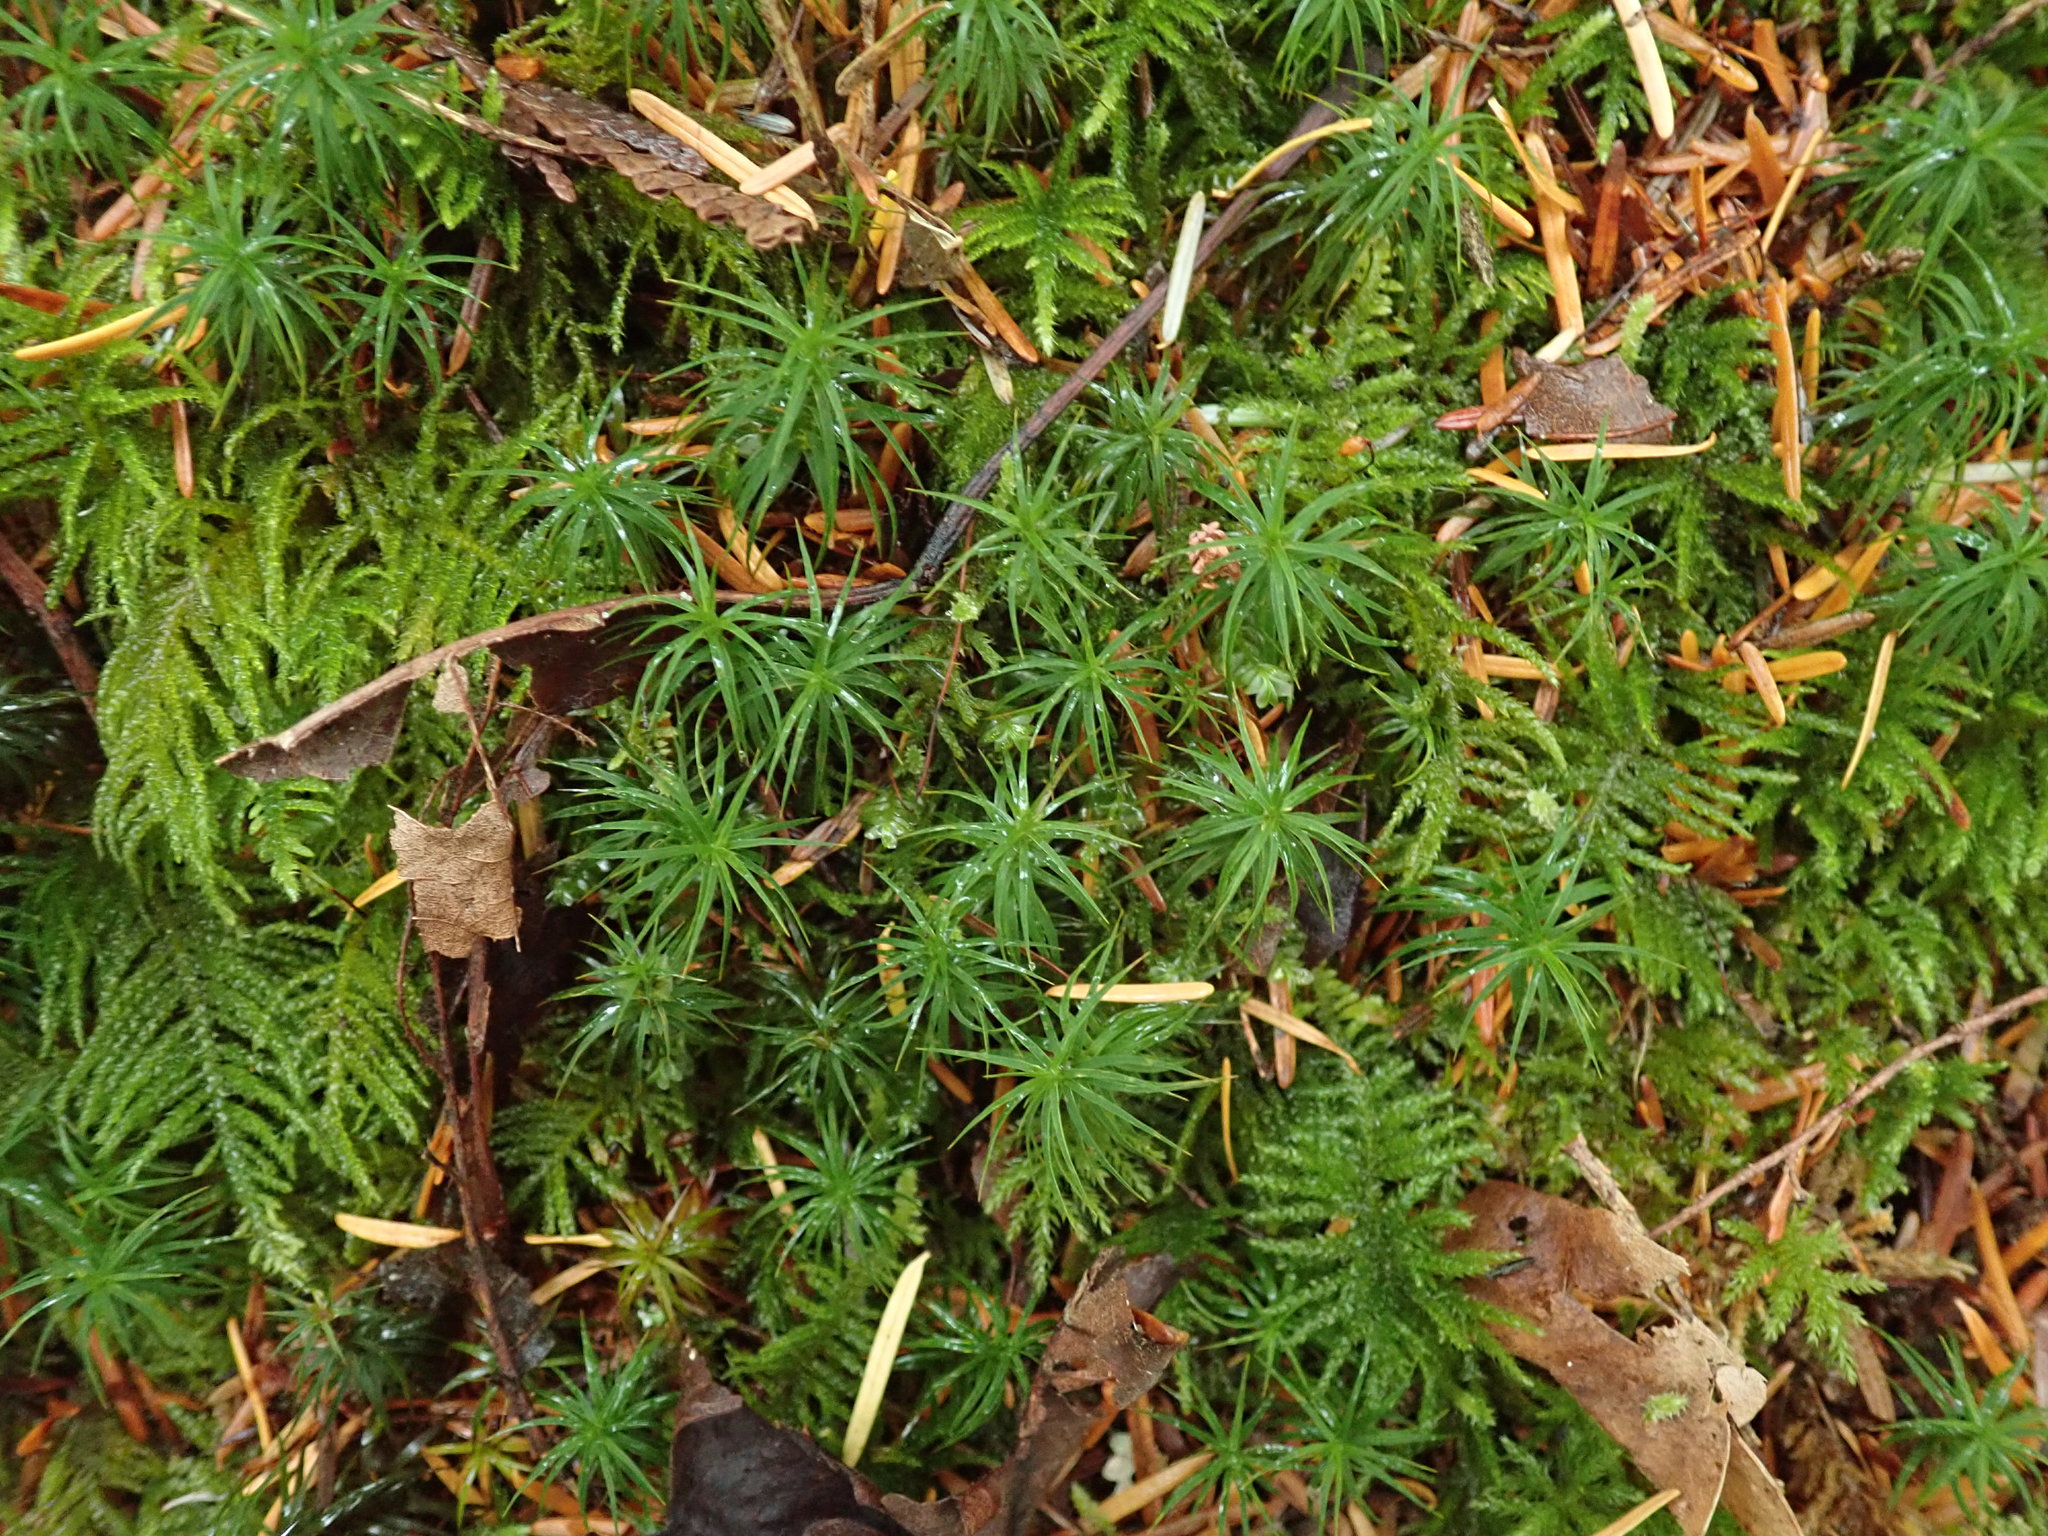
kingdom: Plantae
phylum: Bryophyta
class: Polytrichopsida
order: Polytrichales
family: Polytrichaceae
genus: Polytrichastrum
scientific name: Polytrichastrum alpinum
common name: Alpine haircap
